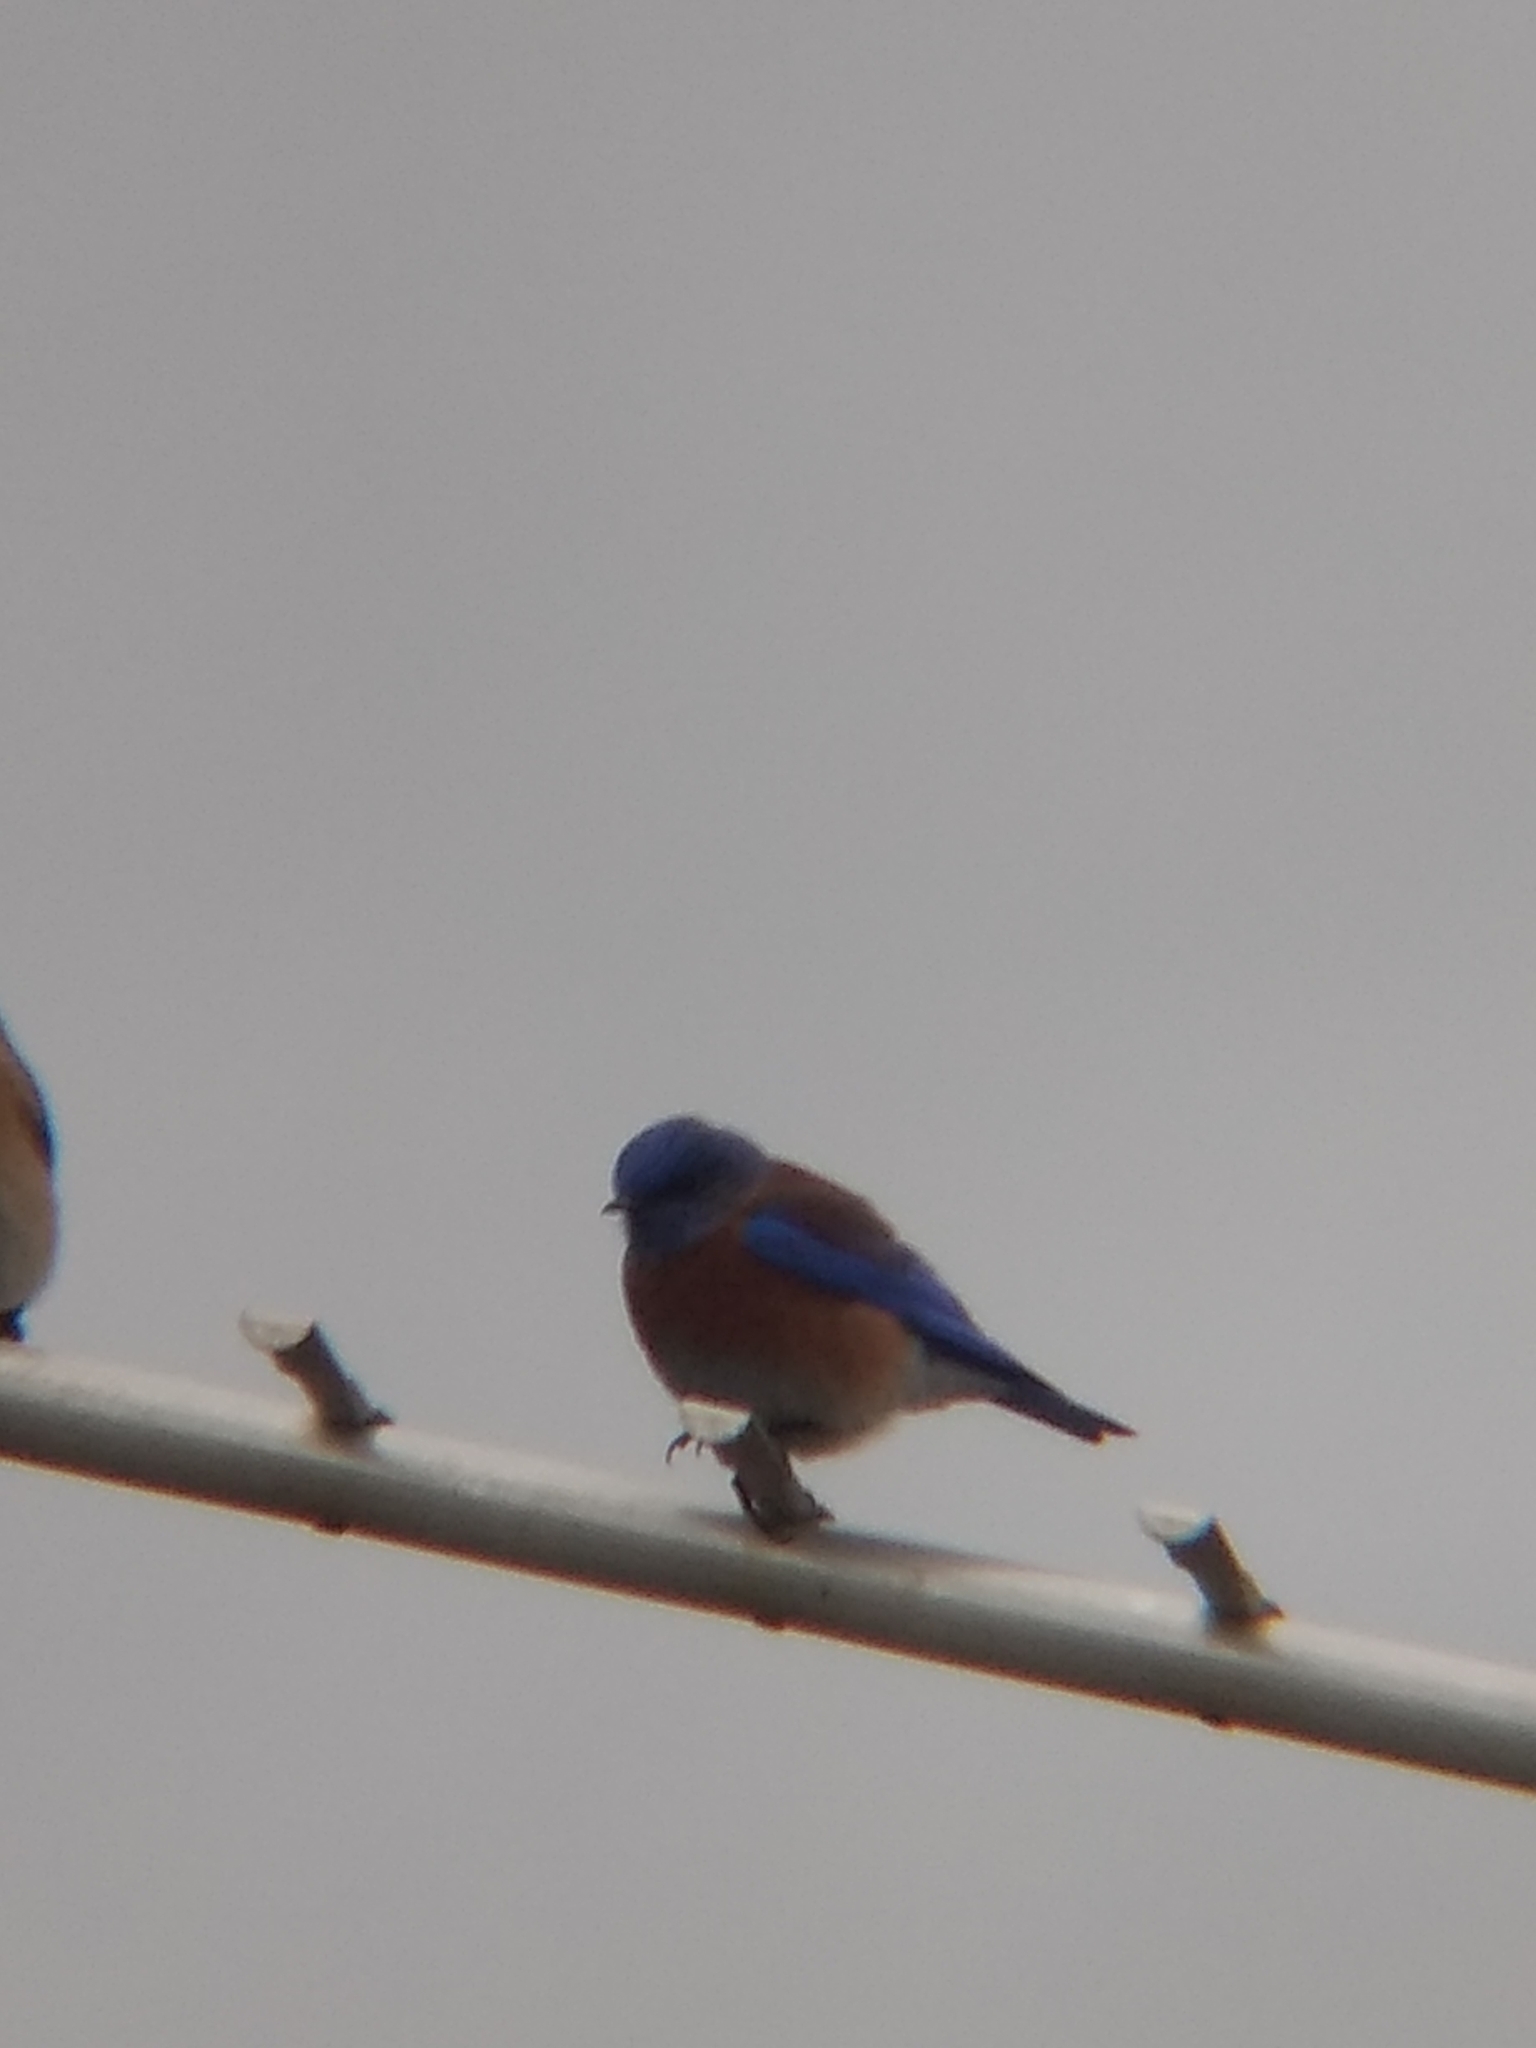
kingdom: Animalia
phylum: Chordata
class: Aves
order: Passeriformes
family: Turdidae
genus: Sialia
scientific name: Sialia mexicana
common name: Western bluebird
